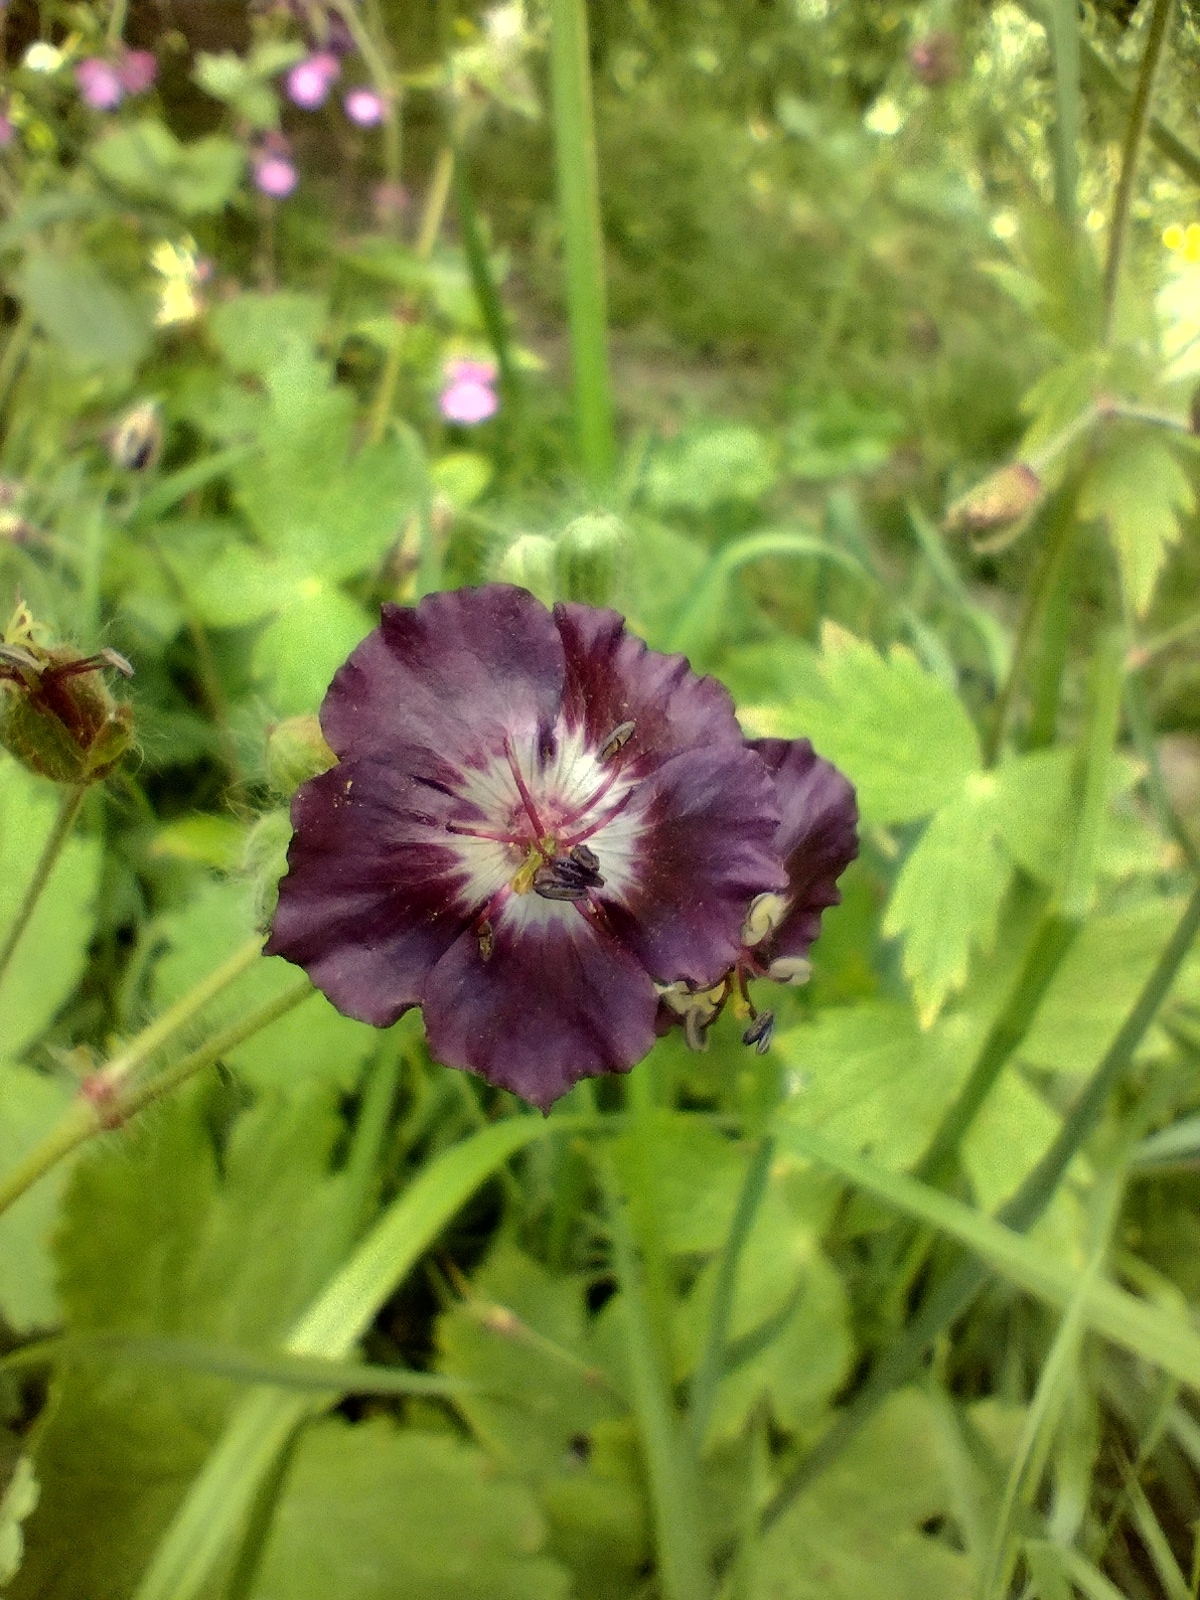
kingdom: Plantae
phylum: Tracheophyta
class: Magnoliopsida
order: Geraniales
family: Geraniaceae
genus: Geranium
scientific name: Geranium phaeum
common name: Dusky crane's-bill
